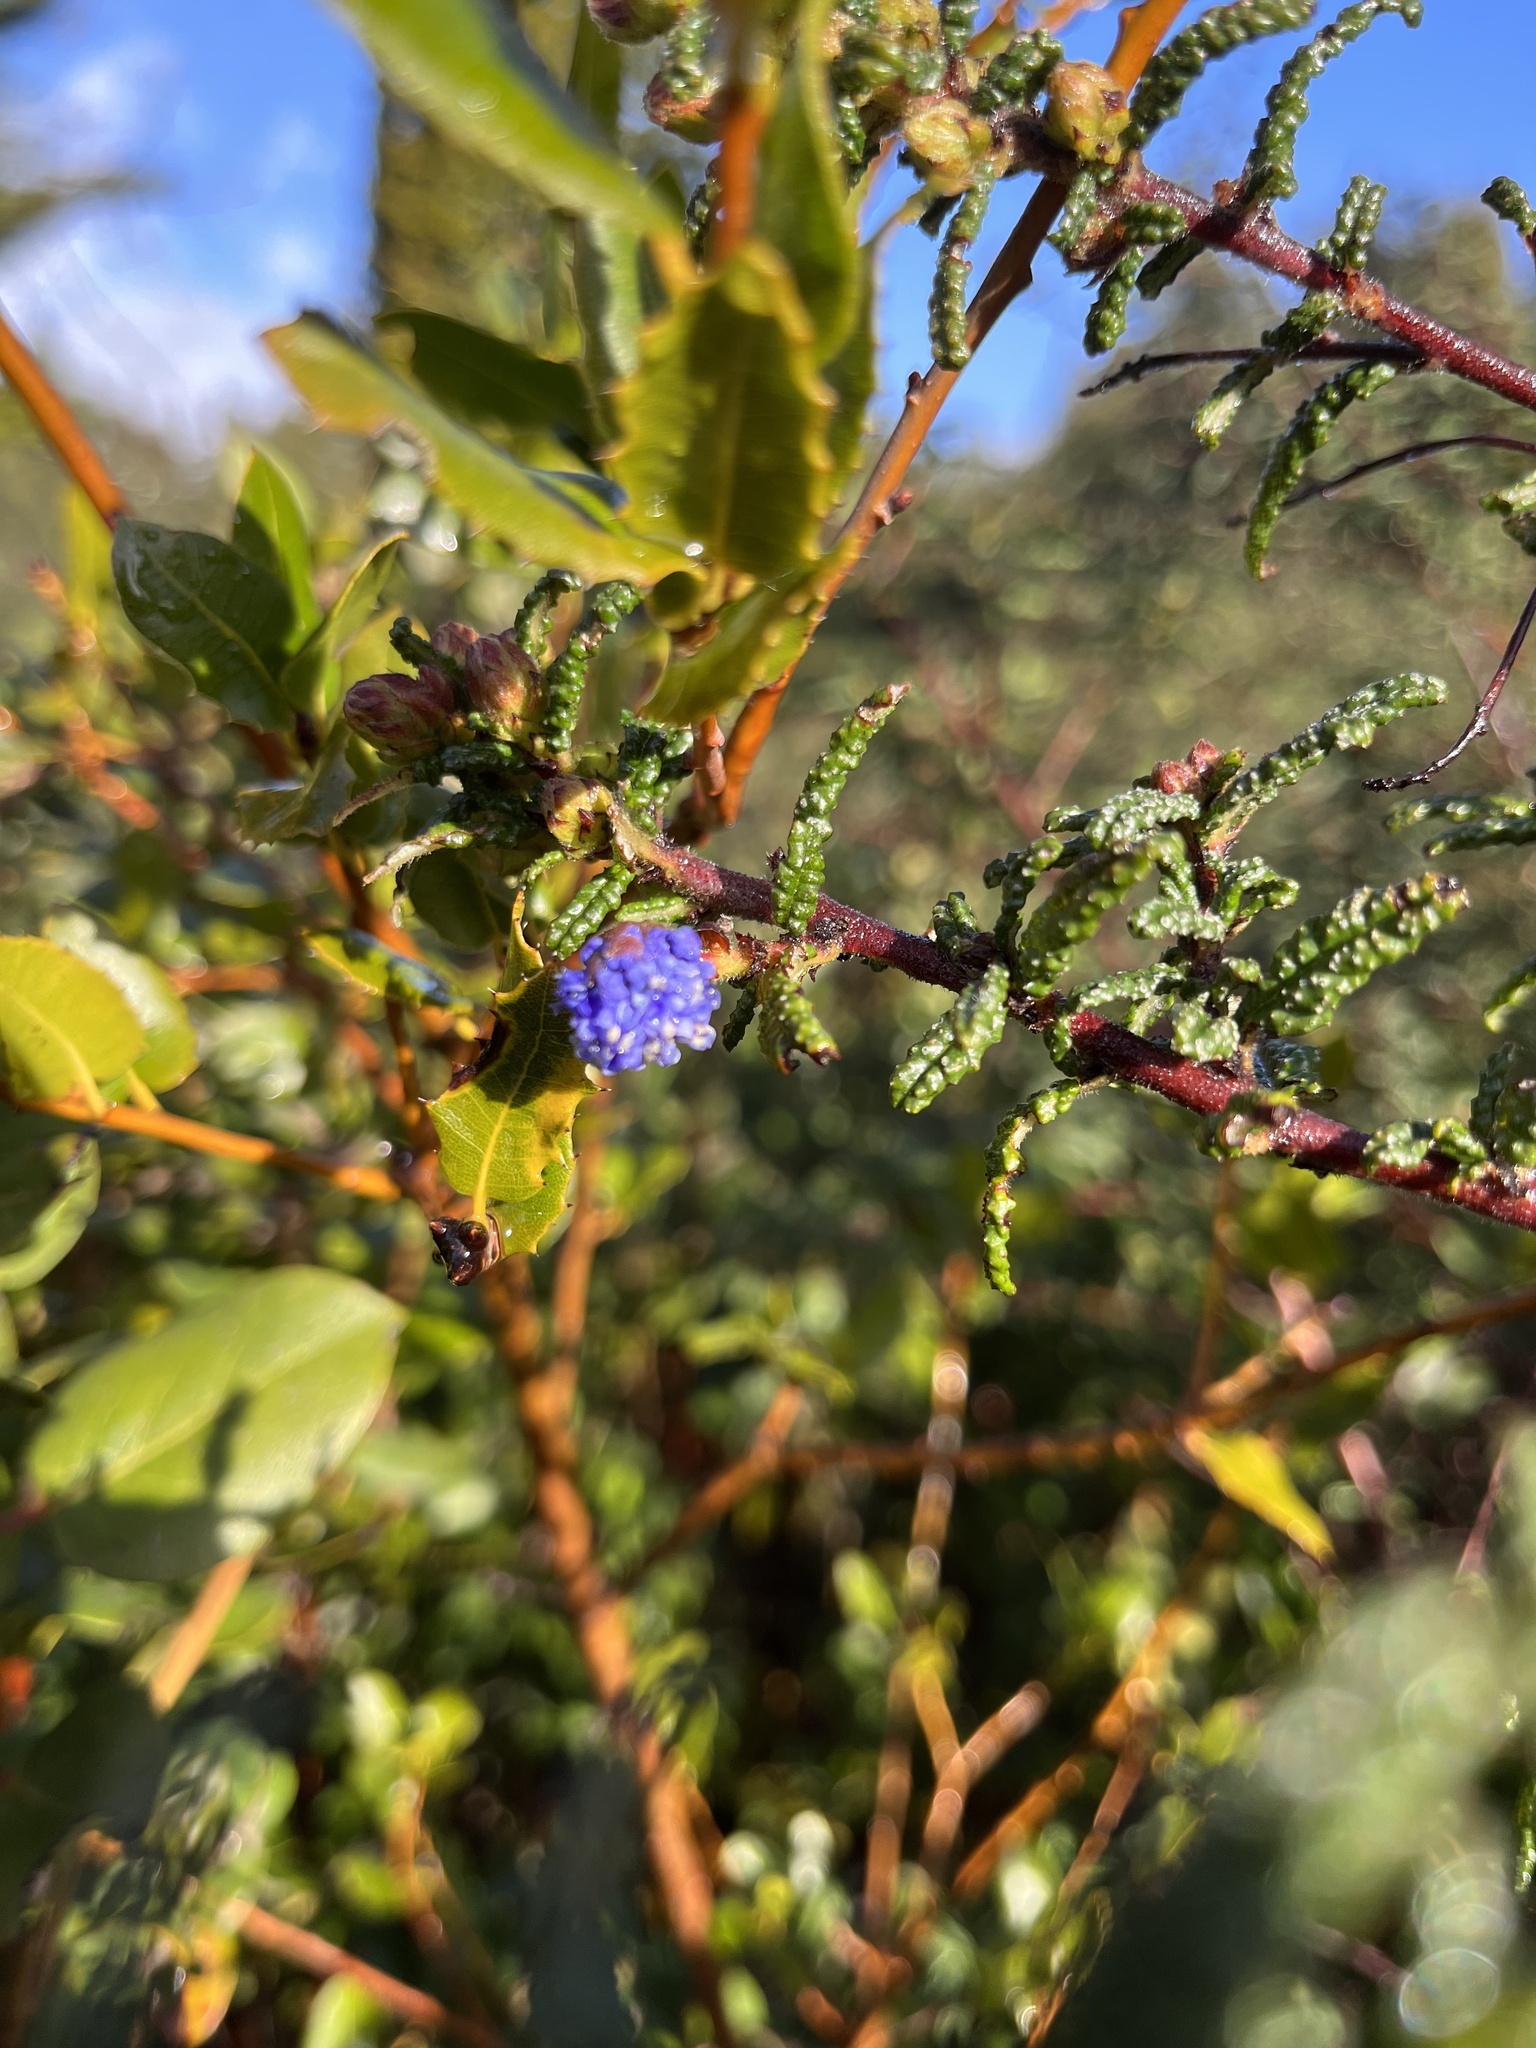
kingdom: Plantae
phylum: Tracheophyta
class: Magnoliopsida
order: Rosales
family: Rhamnaceae
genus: Ceanothus
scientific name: Ceanothus papillosus
